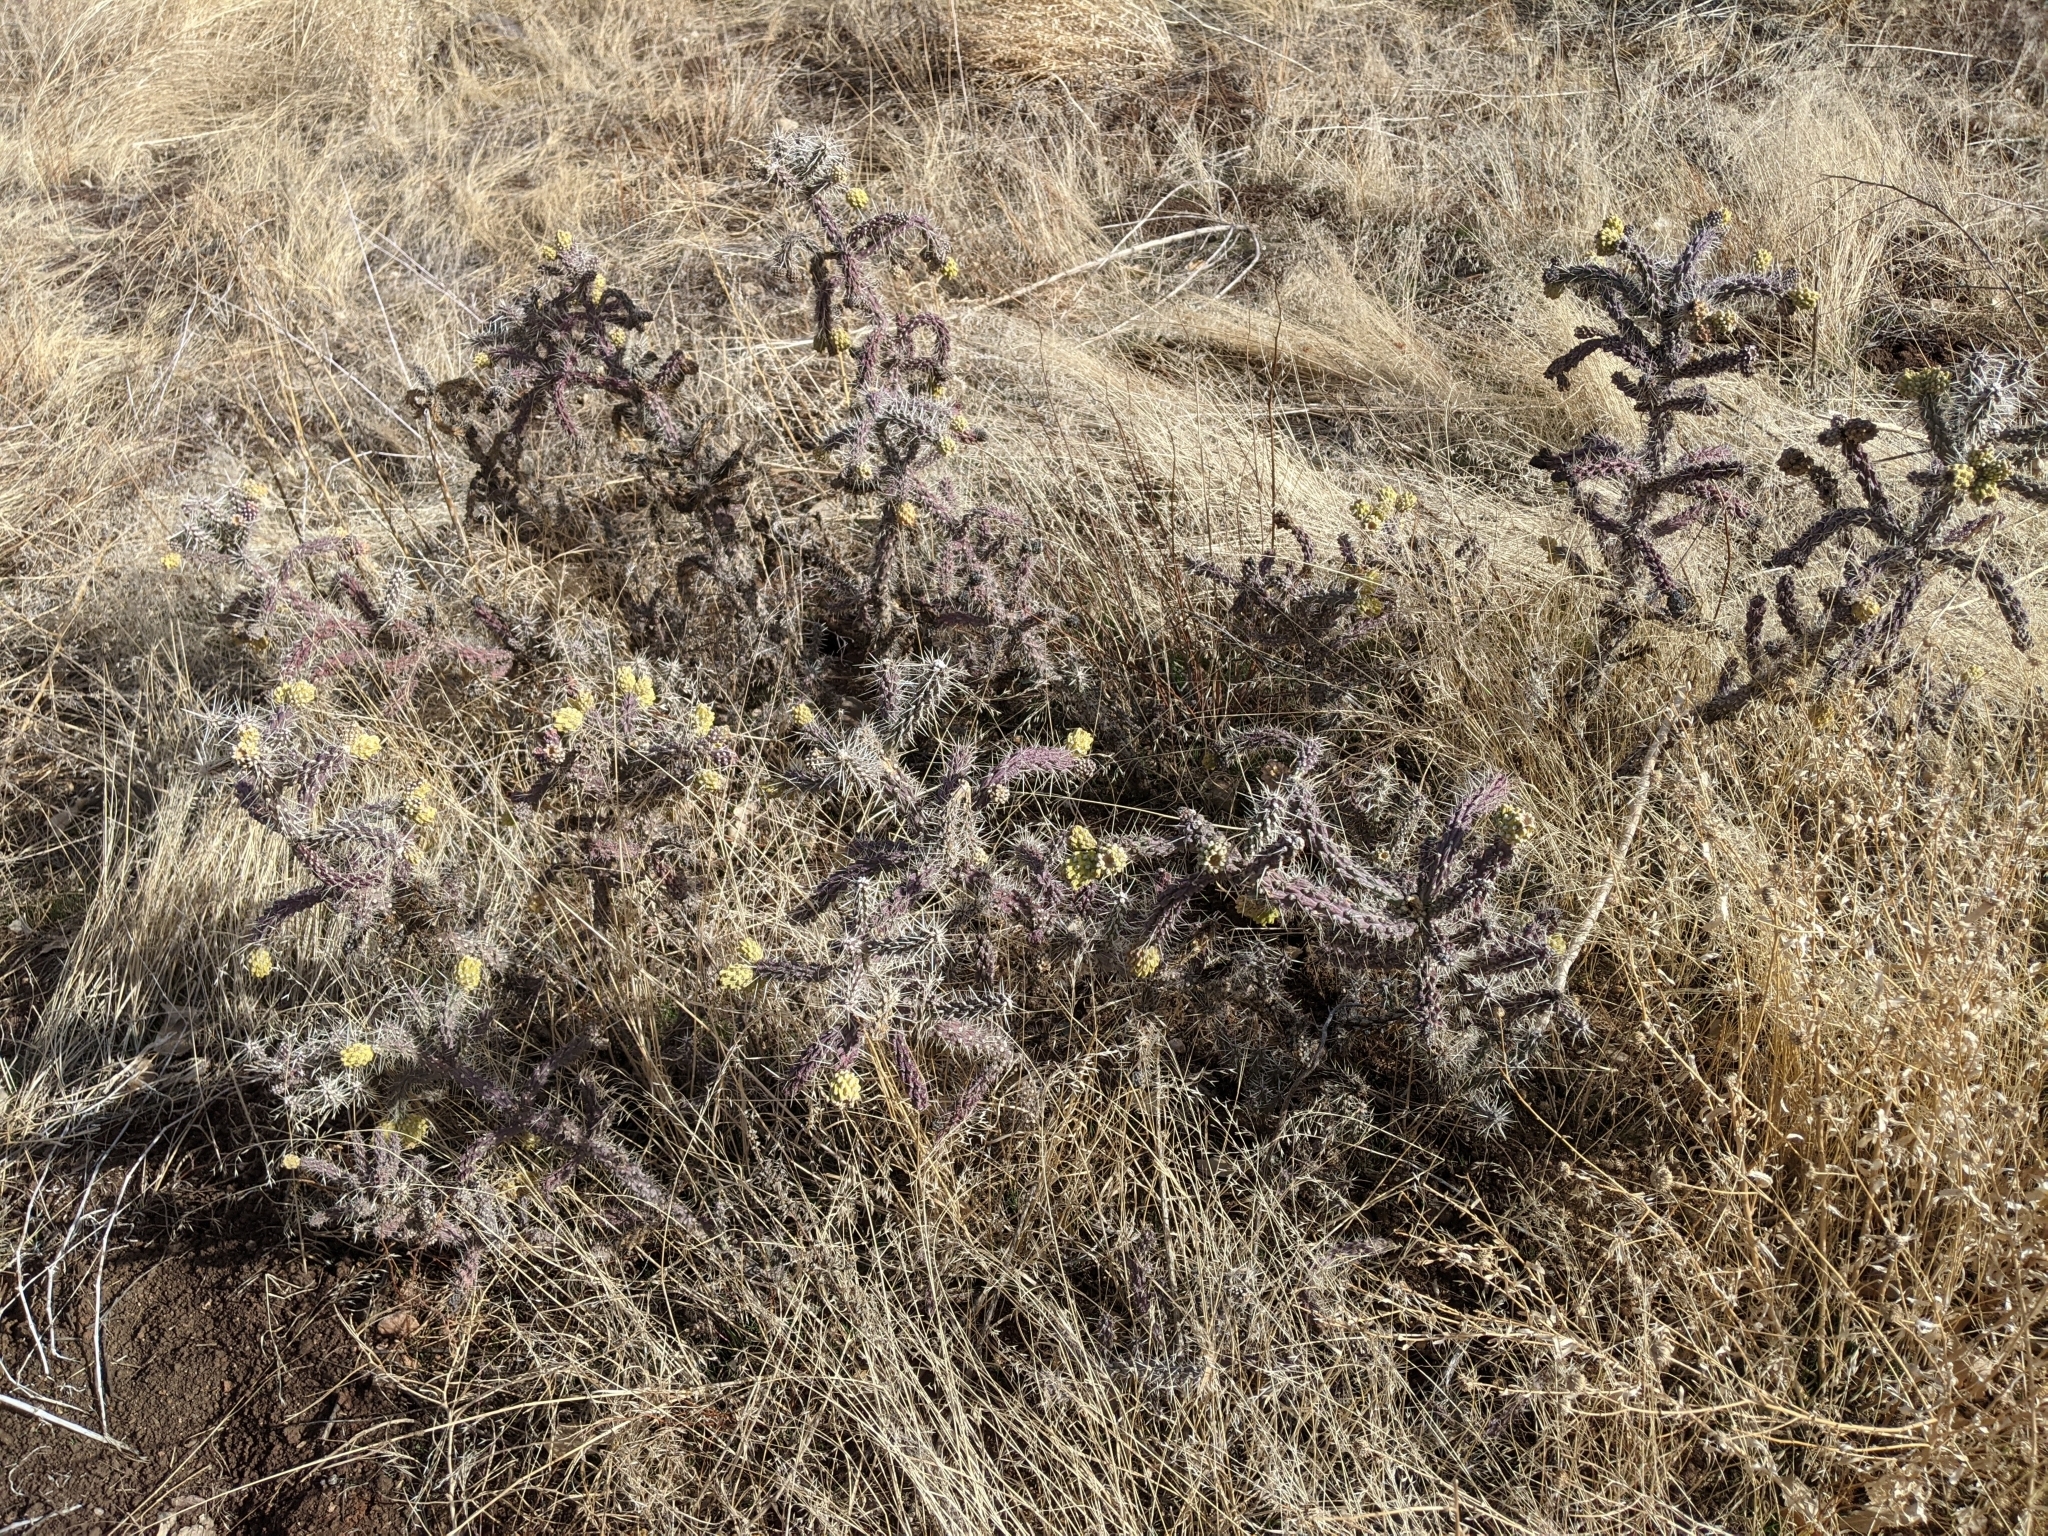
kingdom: Plantae
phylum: Tracheophyta
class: Magnoliopsida
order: Caryophyllales
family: Cactaceae
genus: Cylindropuntia
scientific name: Cylindropuntia whipplei
